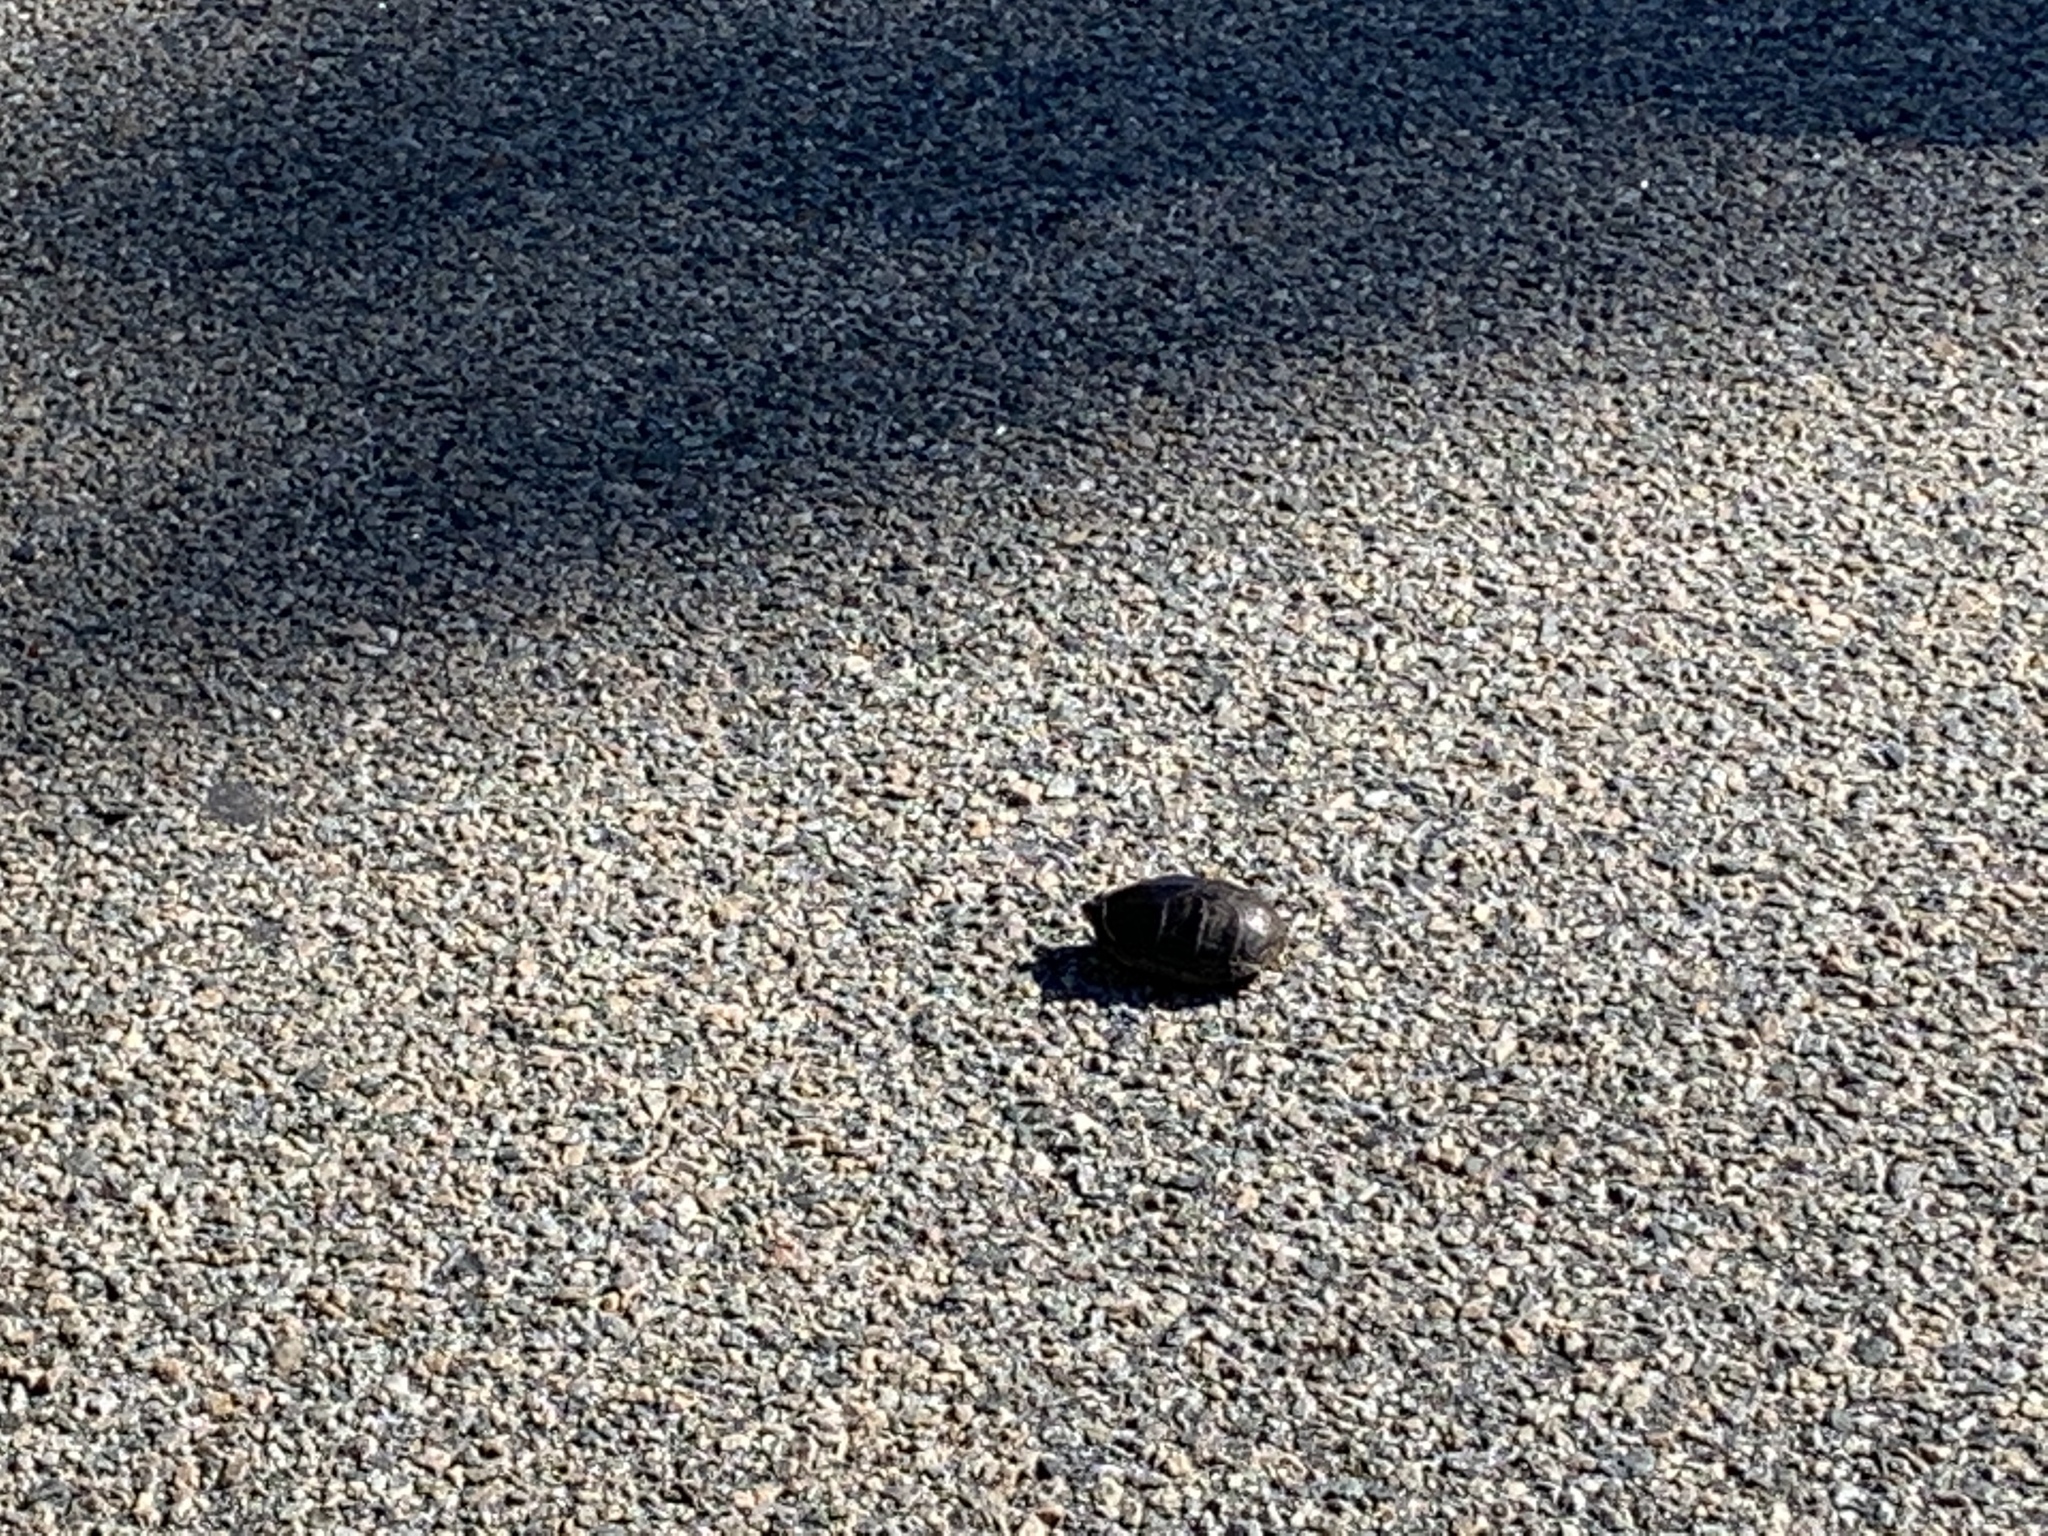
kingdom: Animalia
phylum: Chordata
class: Testudines
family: Kinosternidae
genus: Kinosternon
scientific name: Kinosternon subrubrum
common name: Eastern mud turtle
